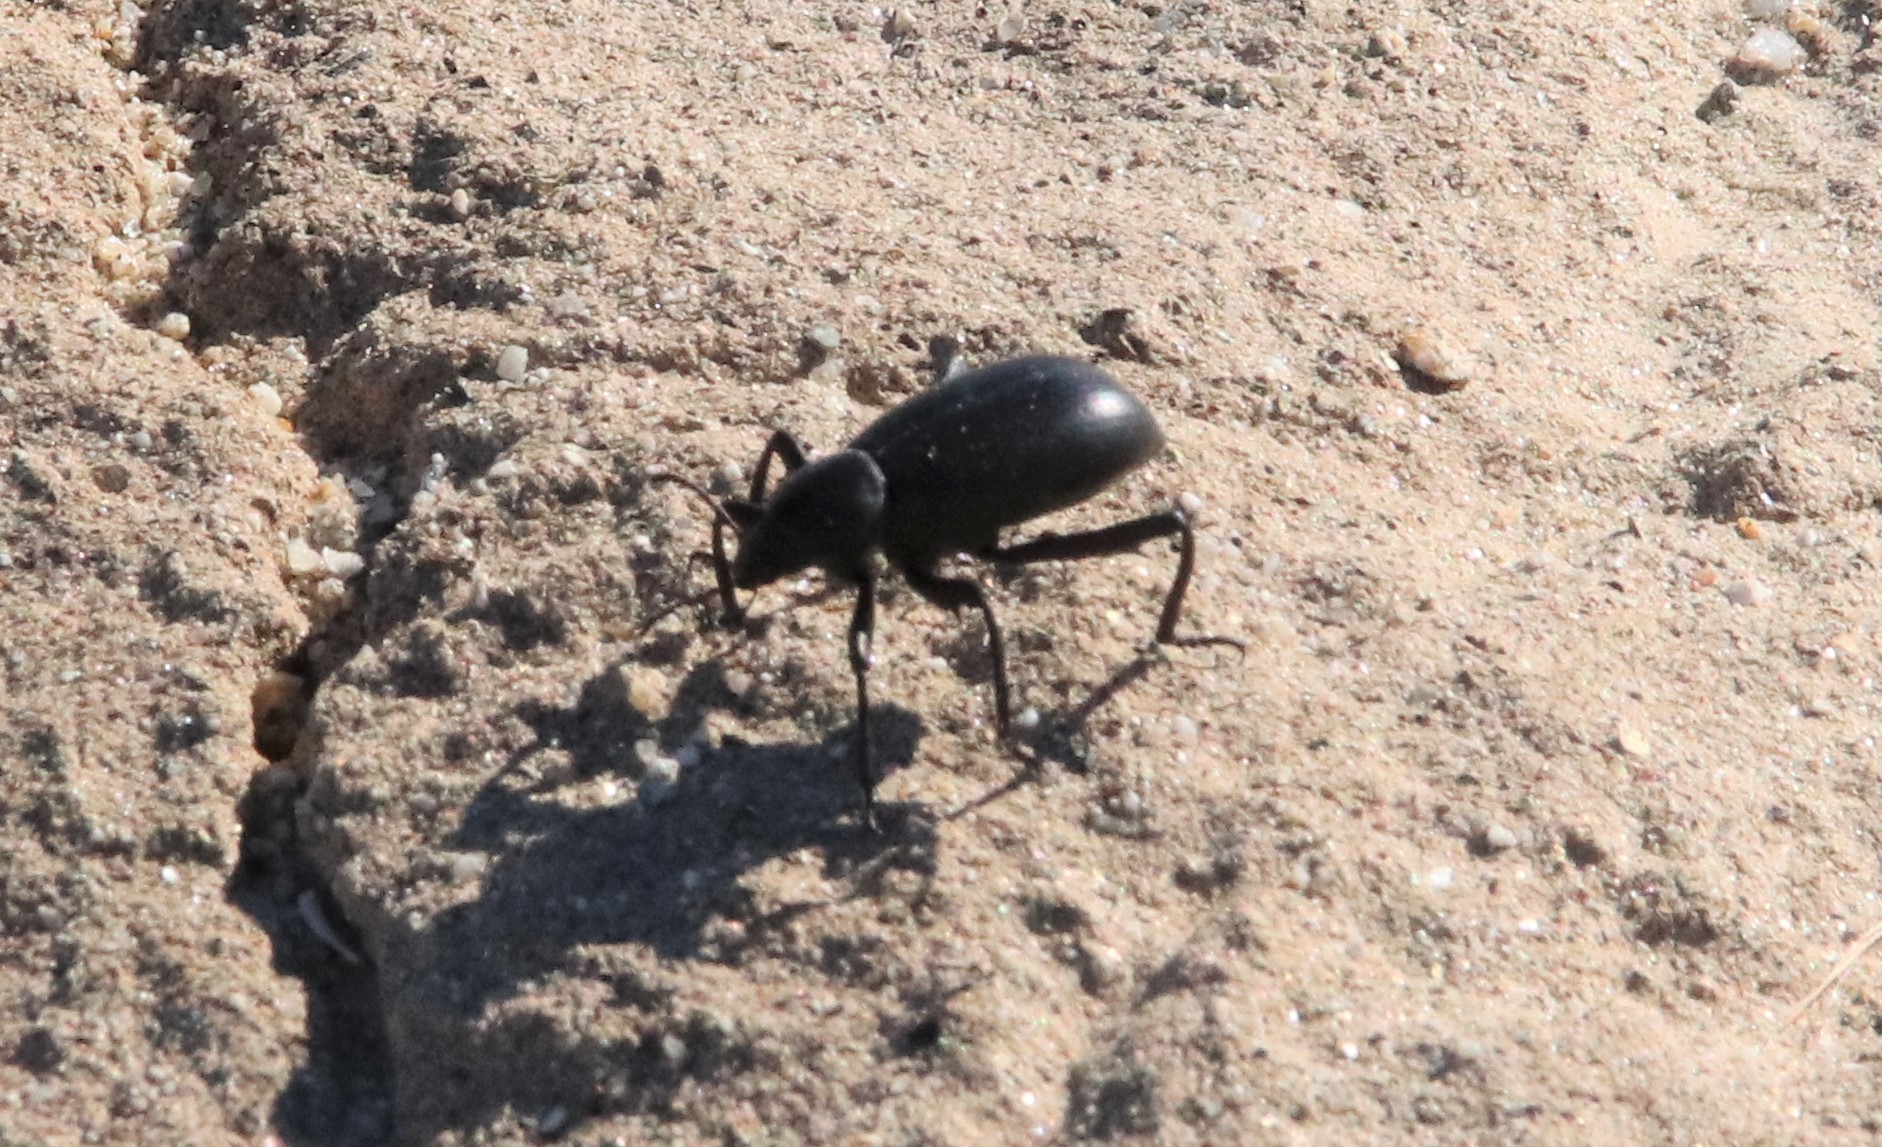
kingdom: Animalia
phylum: Arthropoda
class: Insecta
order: Coleoptera
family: Tenebrionidae
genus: Eleodes
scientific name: Eleodes armata
